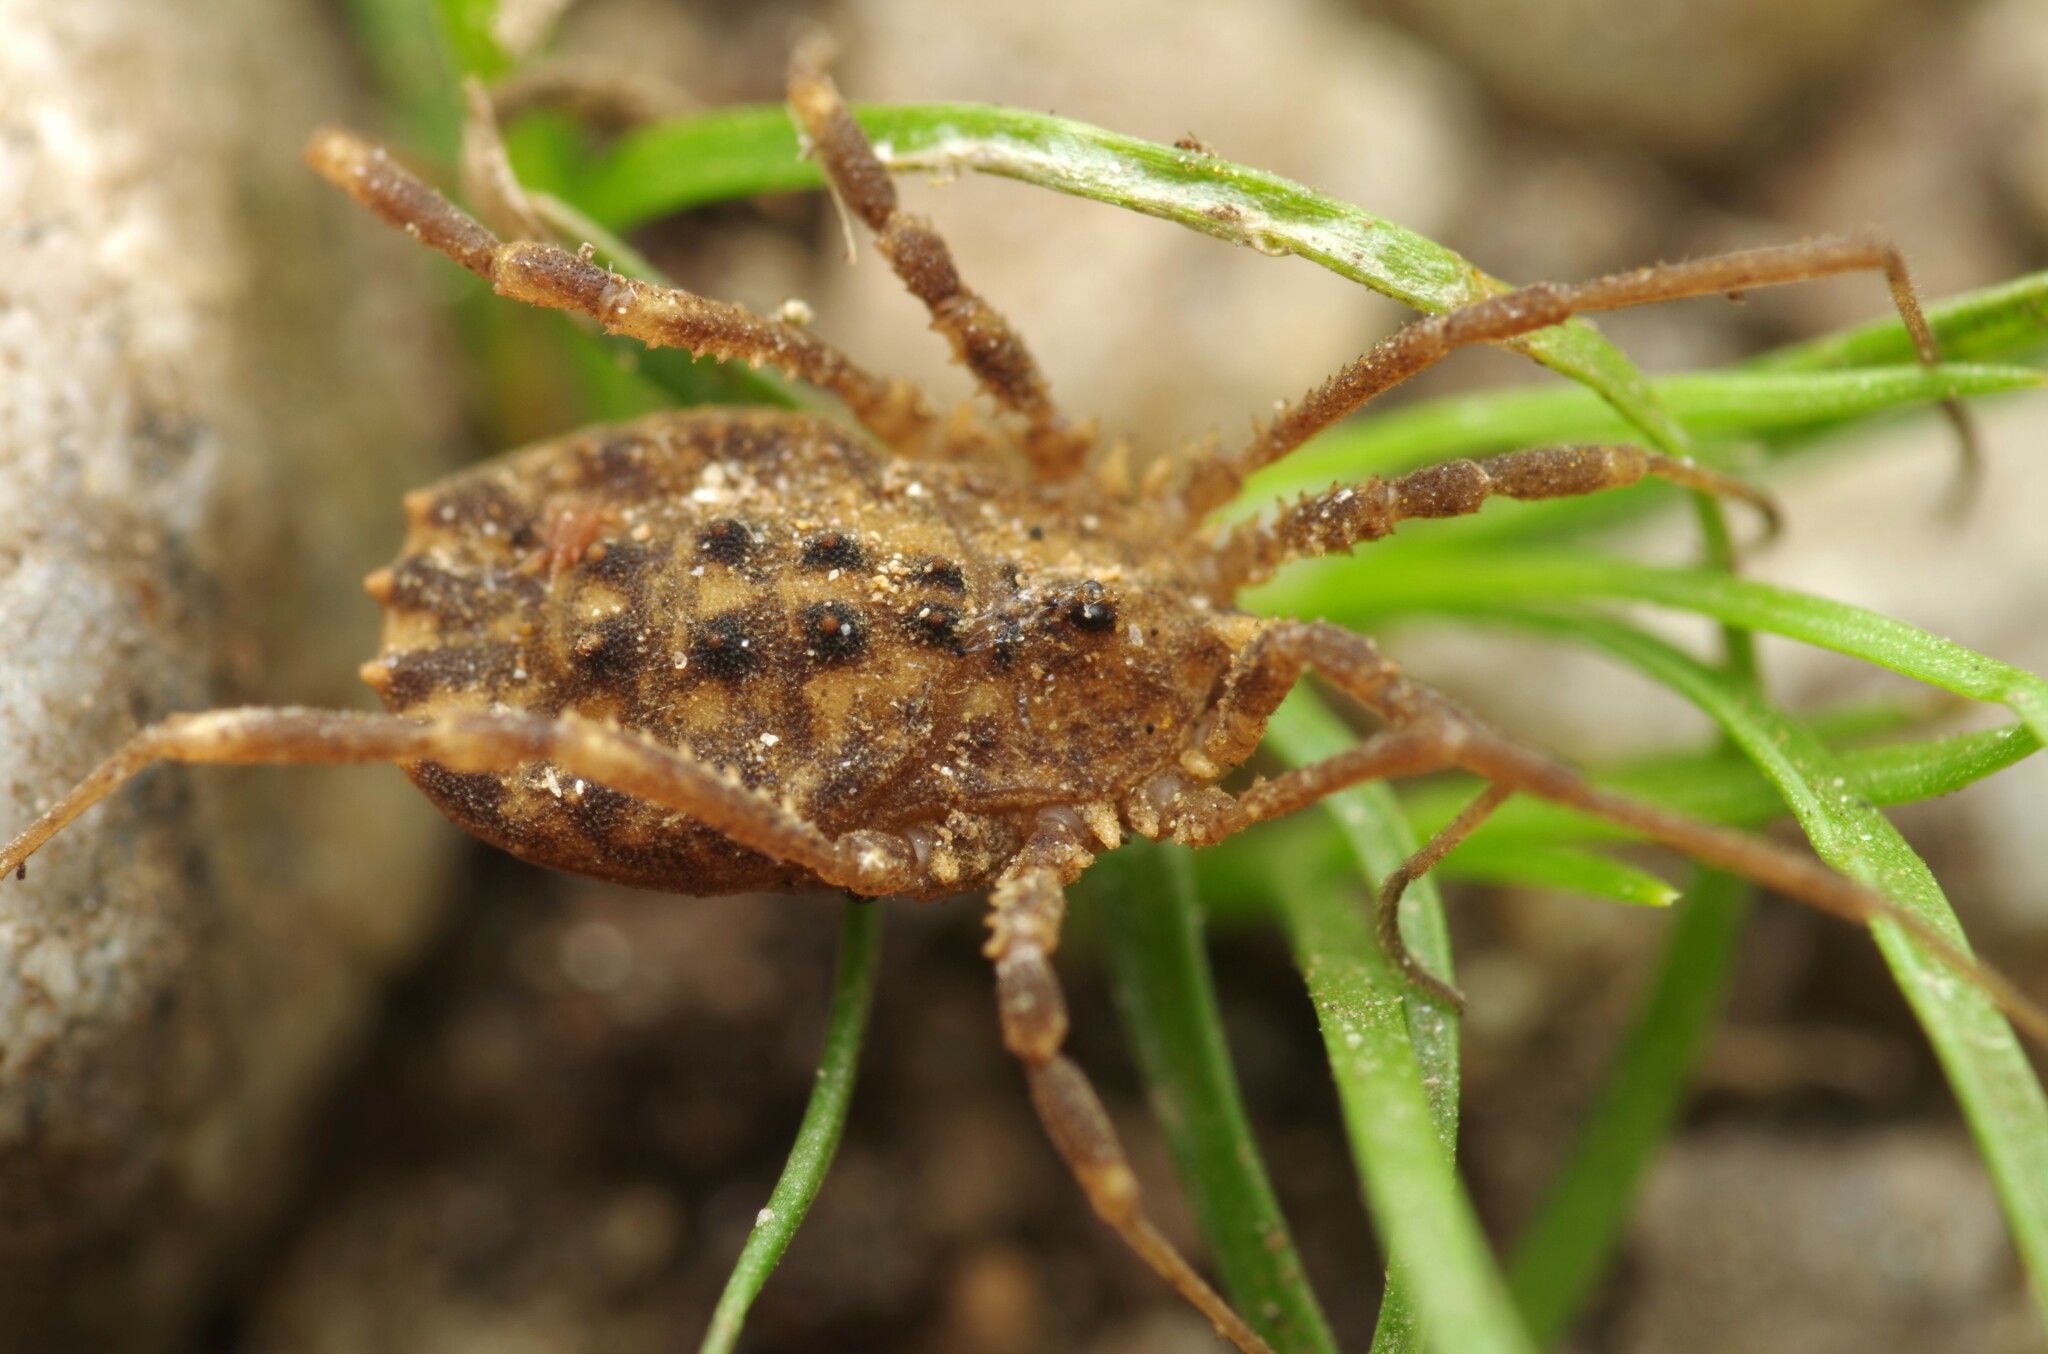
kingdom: Animalia
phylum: Arthropoda
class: Arachnida
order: Opiliones
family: Sclerosomatidae
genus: Homalenotus
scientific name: Homalenotus quadridentatus
